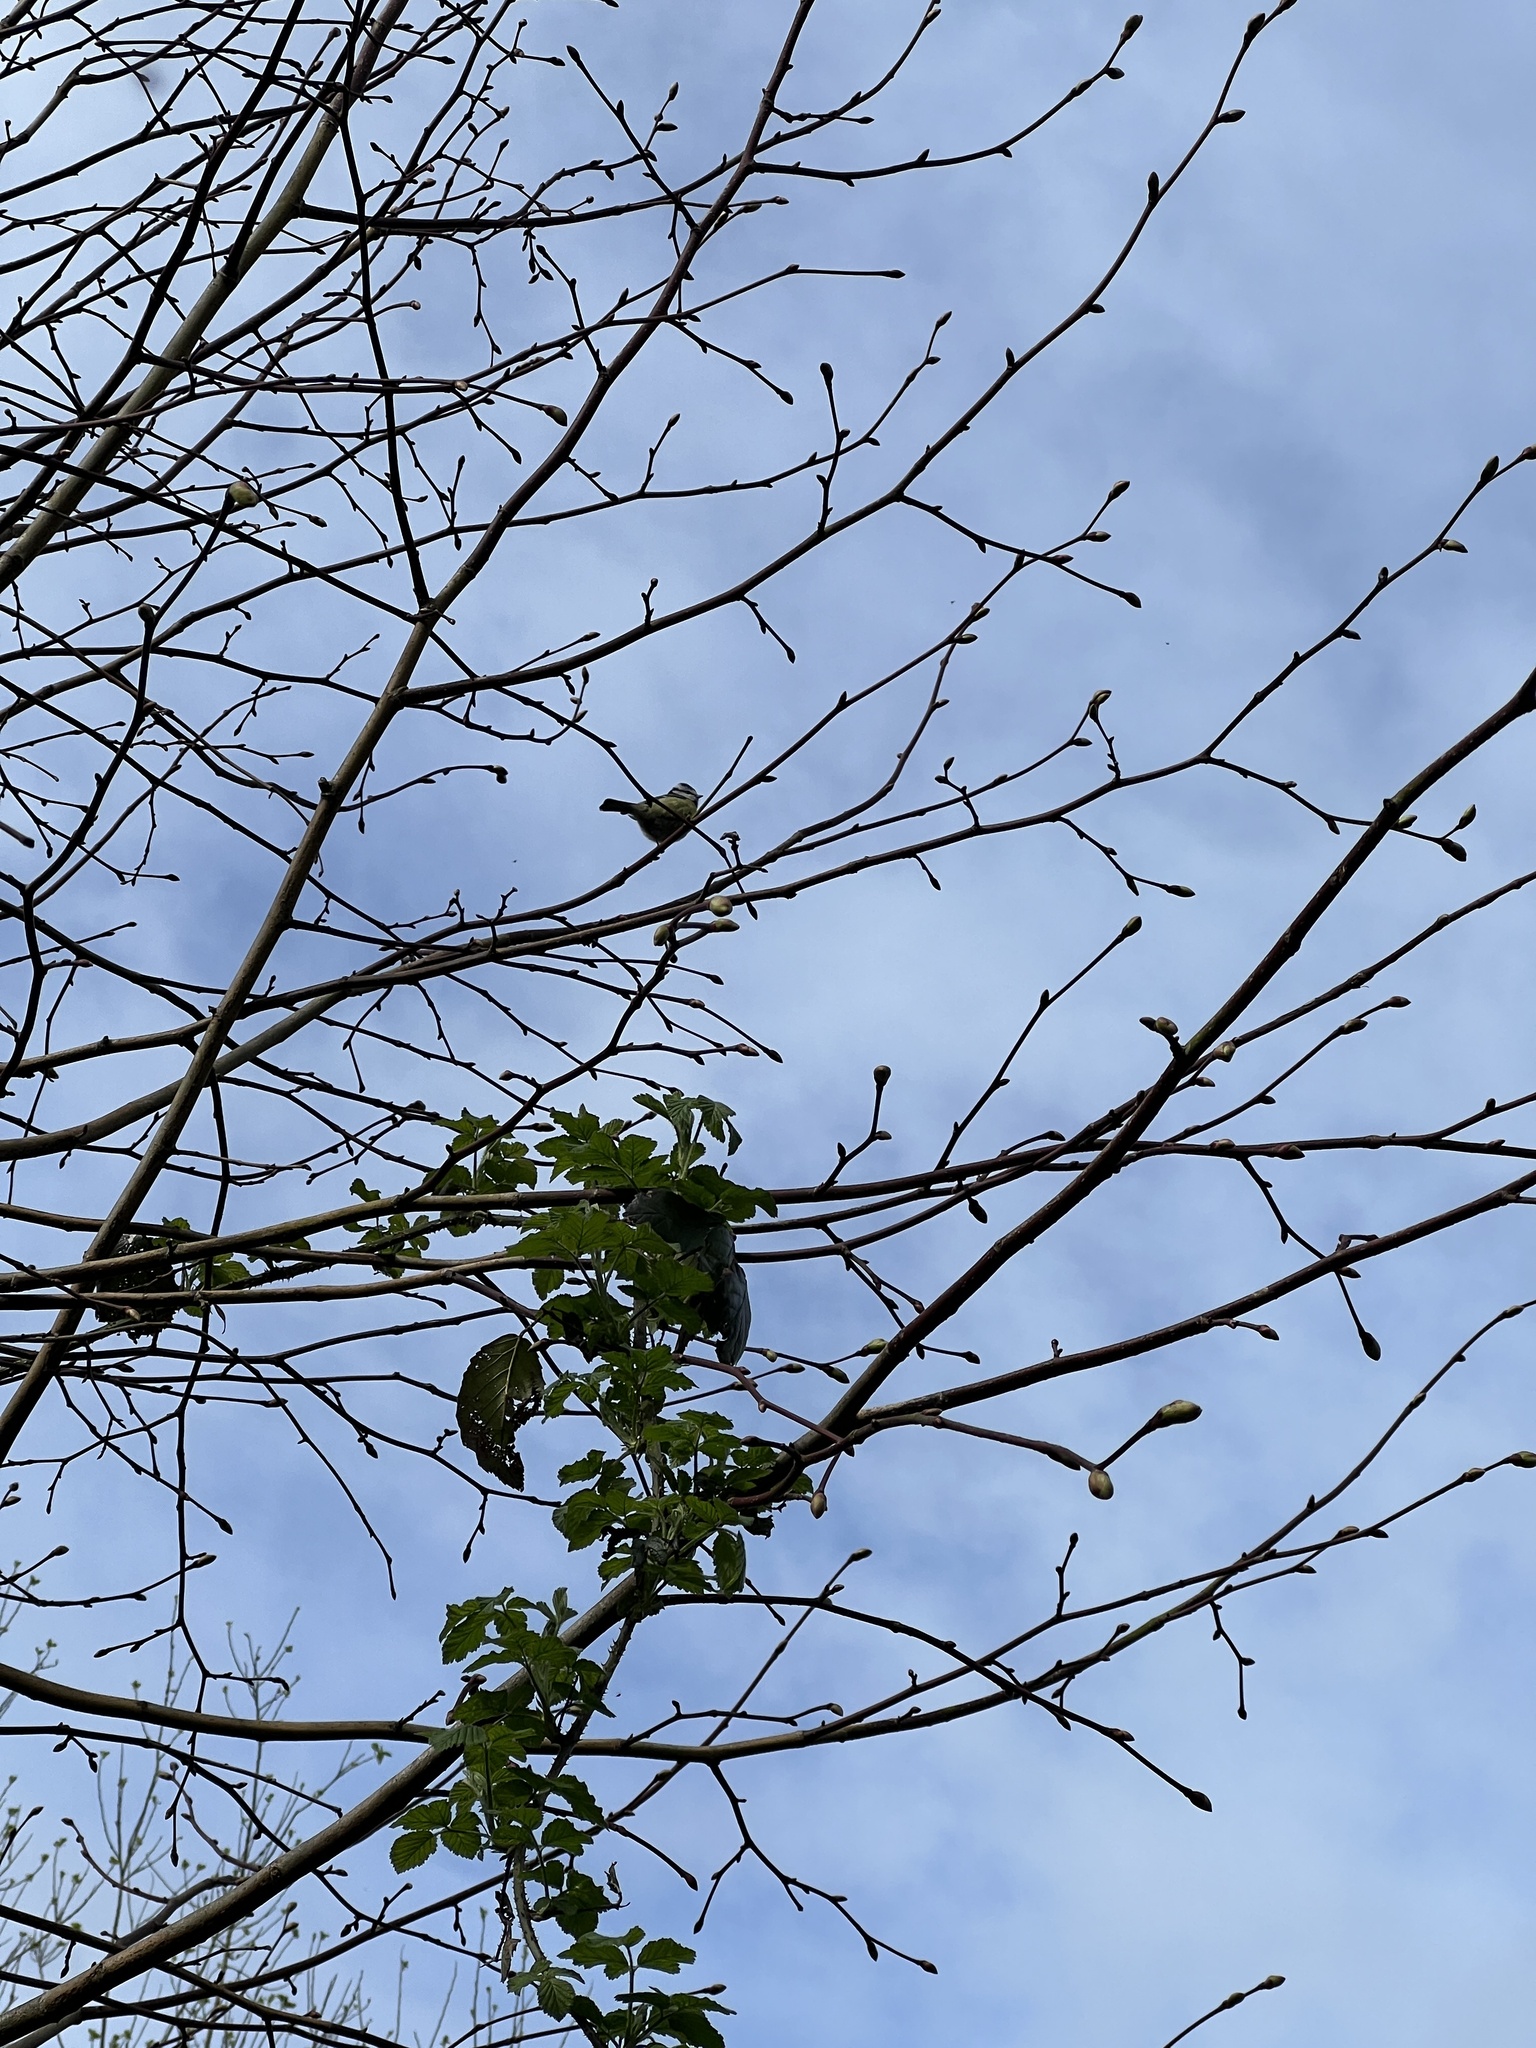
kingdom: Animalia
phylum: Chordata
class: Aves
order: Passeriformes
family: Paridae
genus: Cyanistes
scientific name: Cyanistes caeruleus
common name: Eurasian blue tit
